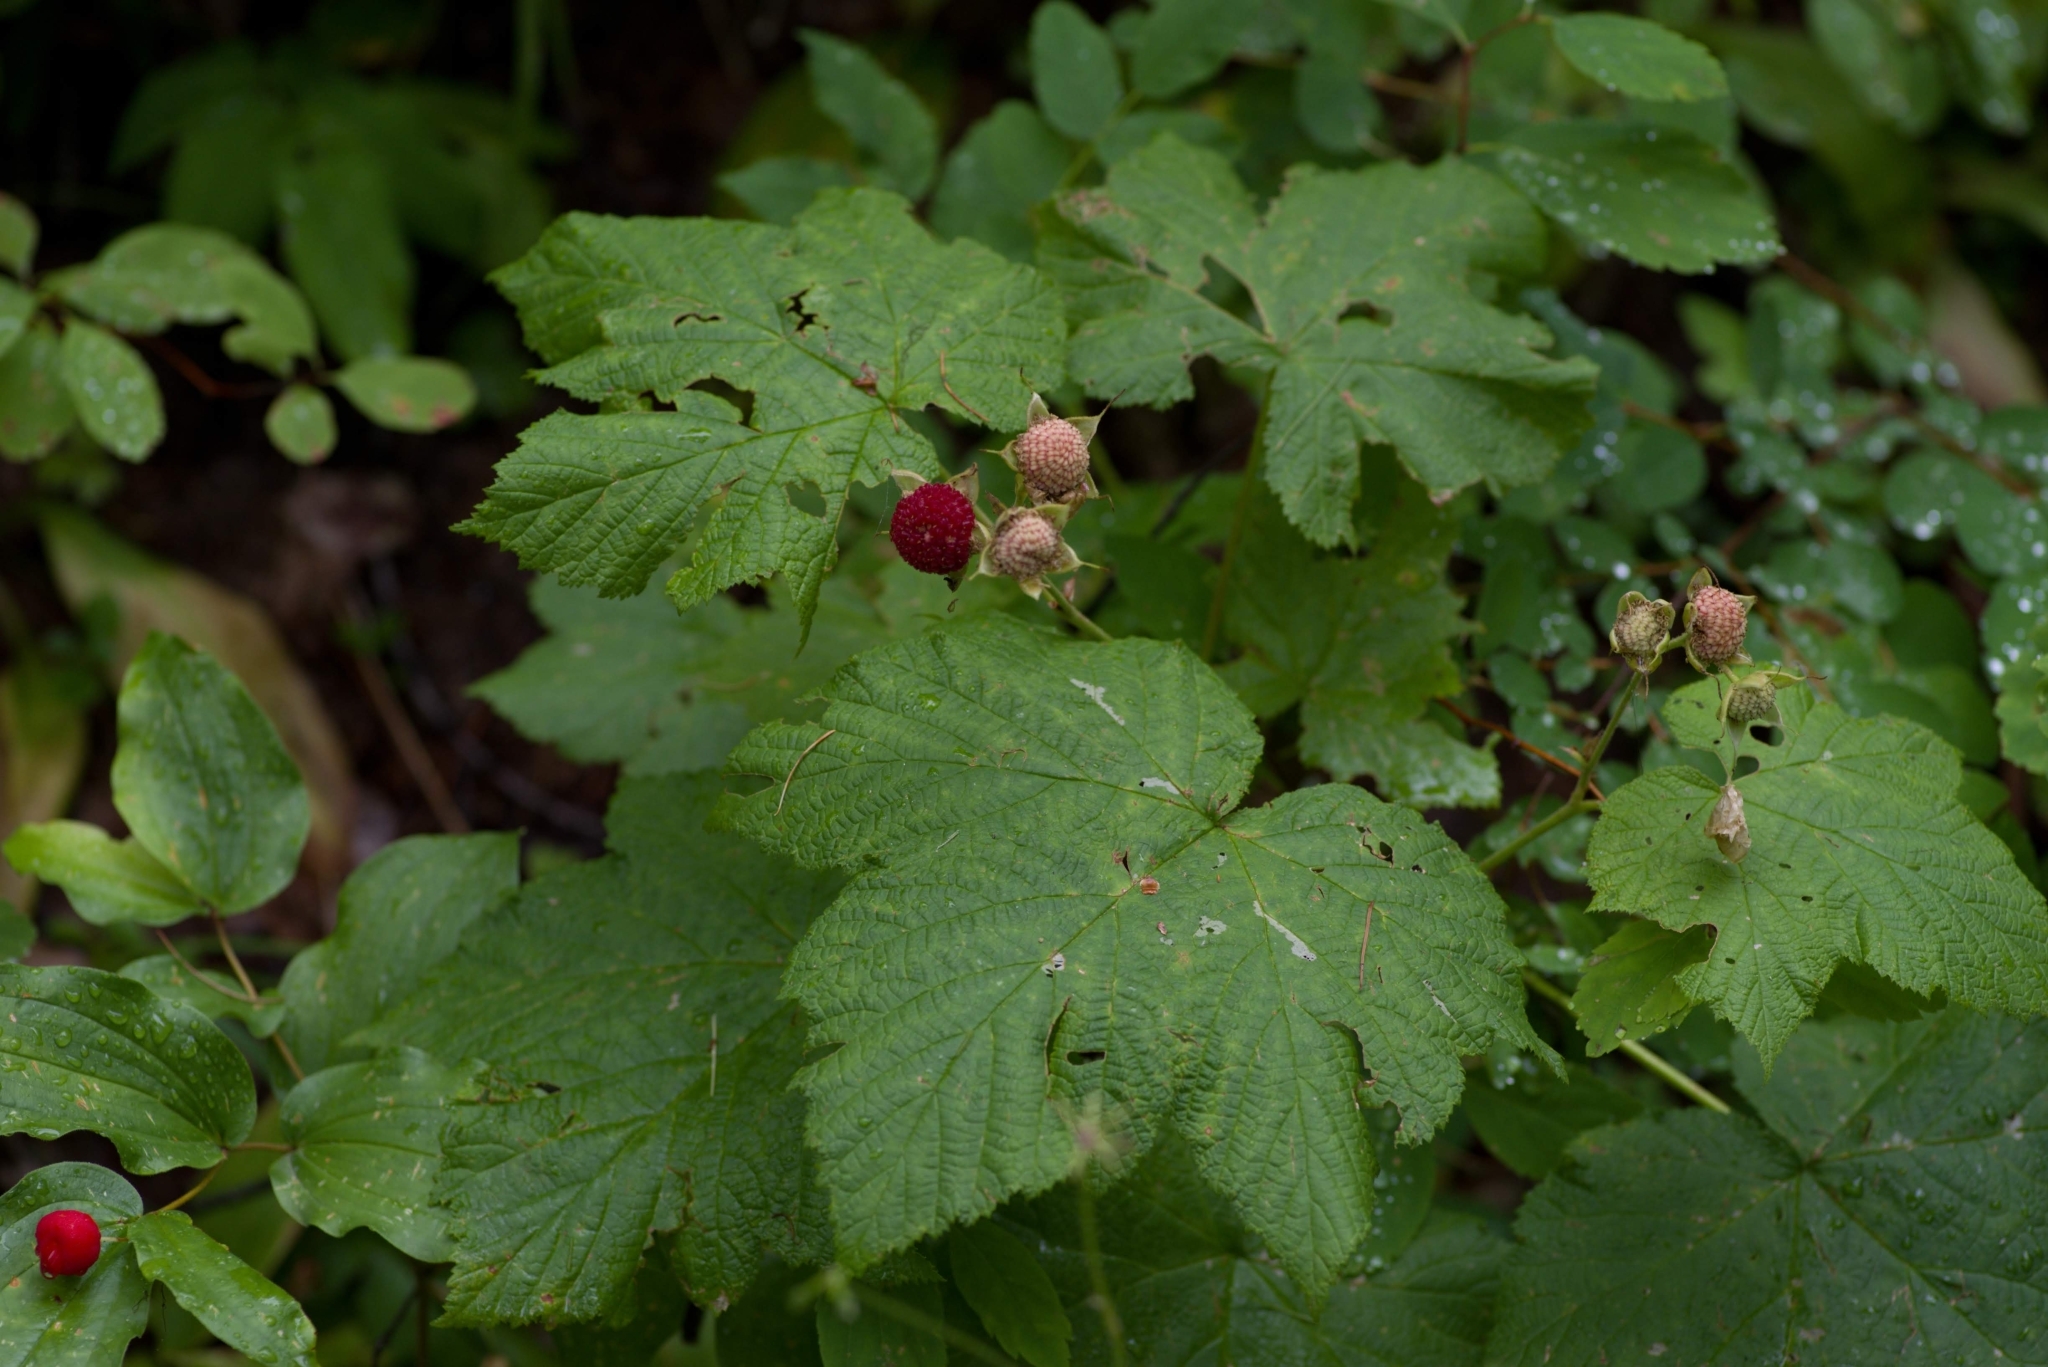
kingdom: Plantae
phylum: Tracheophyta
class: Magnoliopsida
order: Rosales
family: Rosaceae
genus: Rubus
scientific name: Rubus parviflorus
